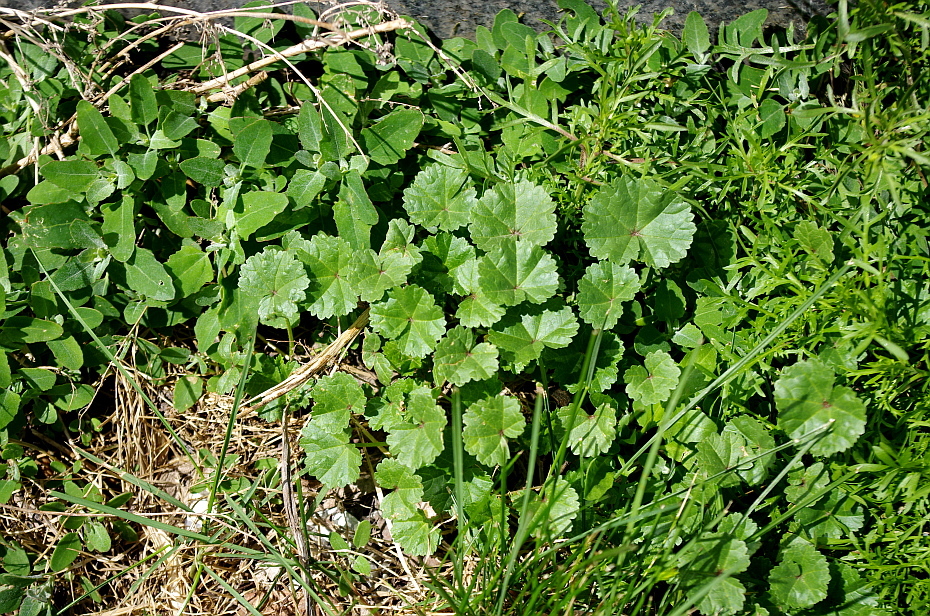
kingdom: Plantae
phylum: Tracheophyta
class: Magnoliopsida
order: Malvales
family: Malvaceae
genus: Malva
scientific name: Malva pusilla
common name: Small mallow
